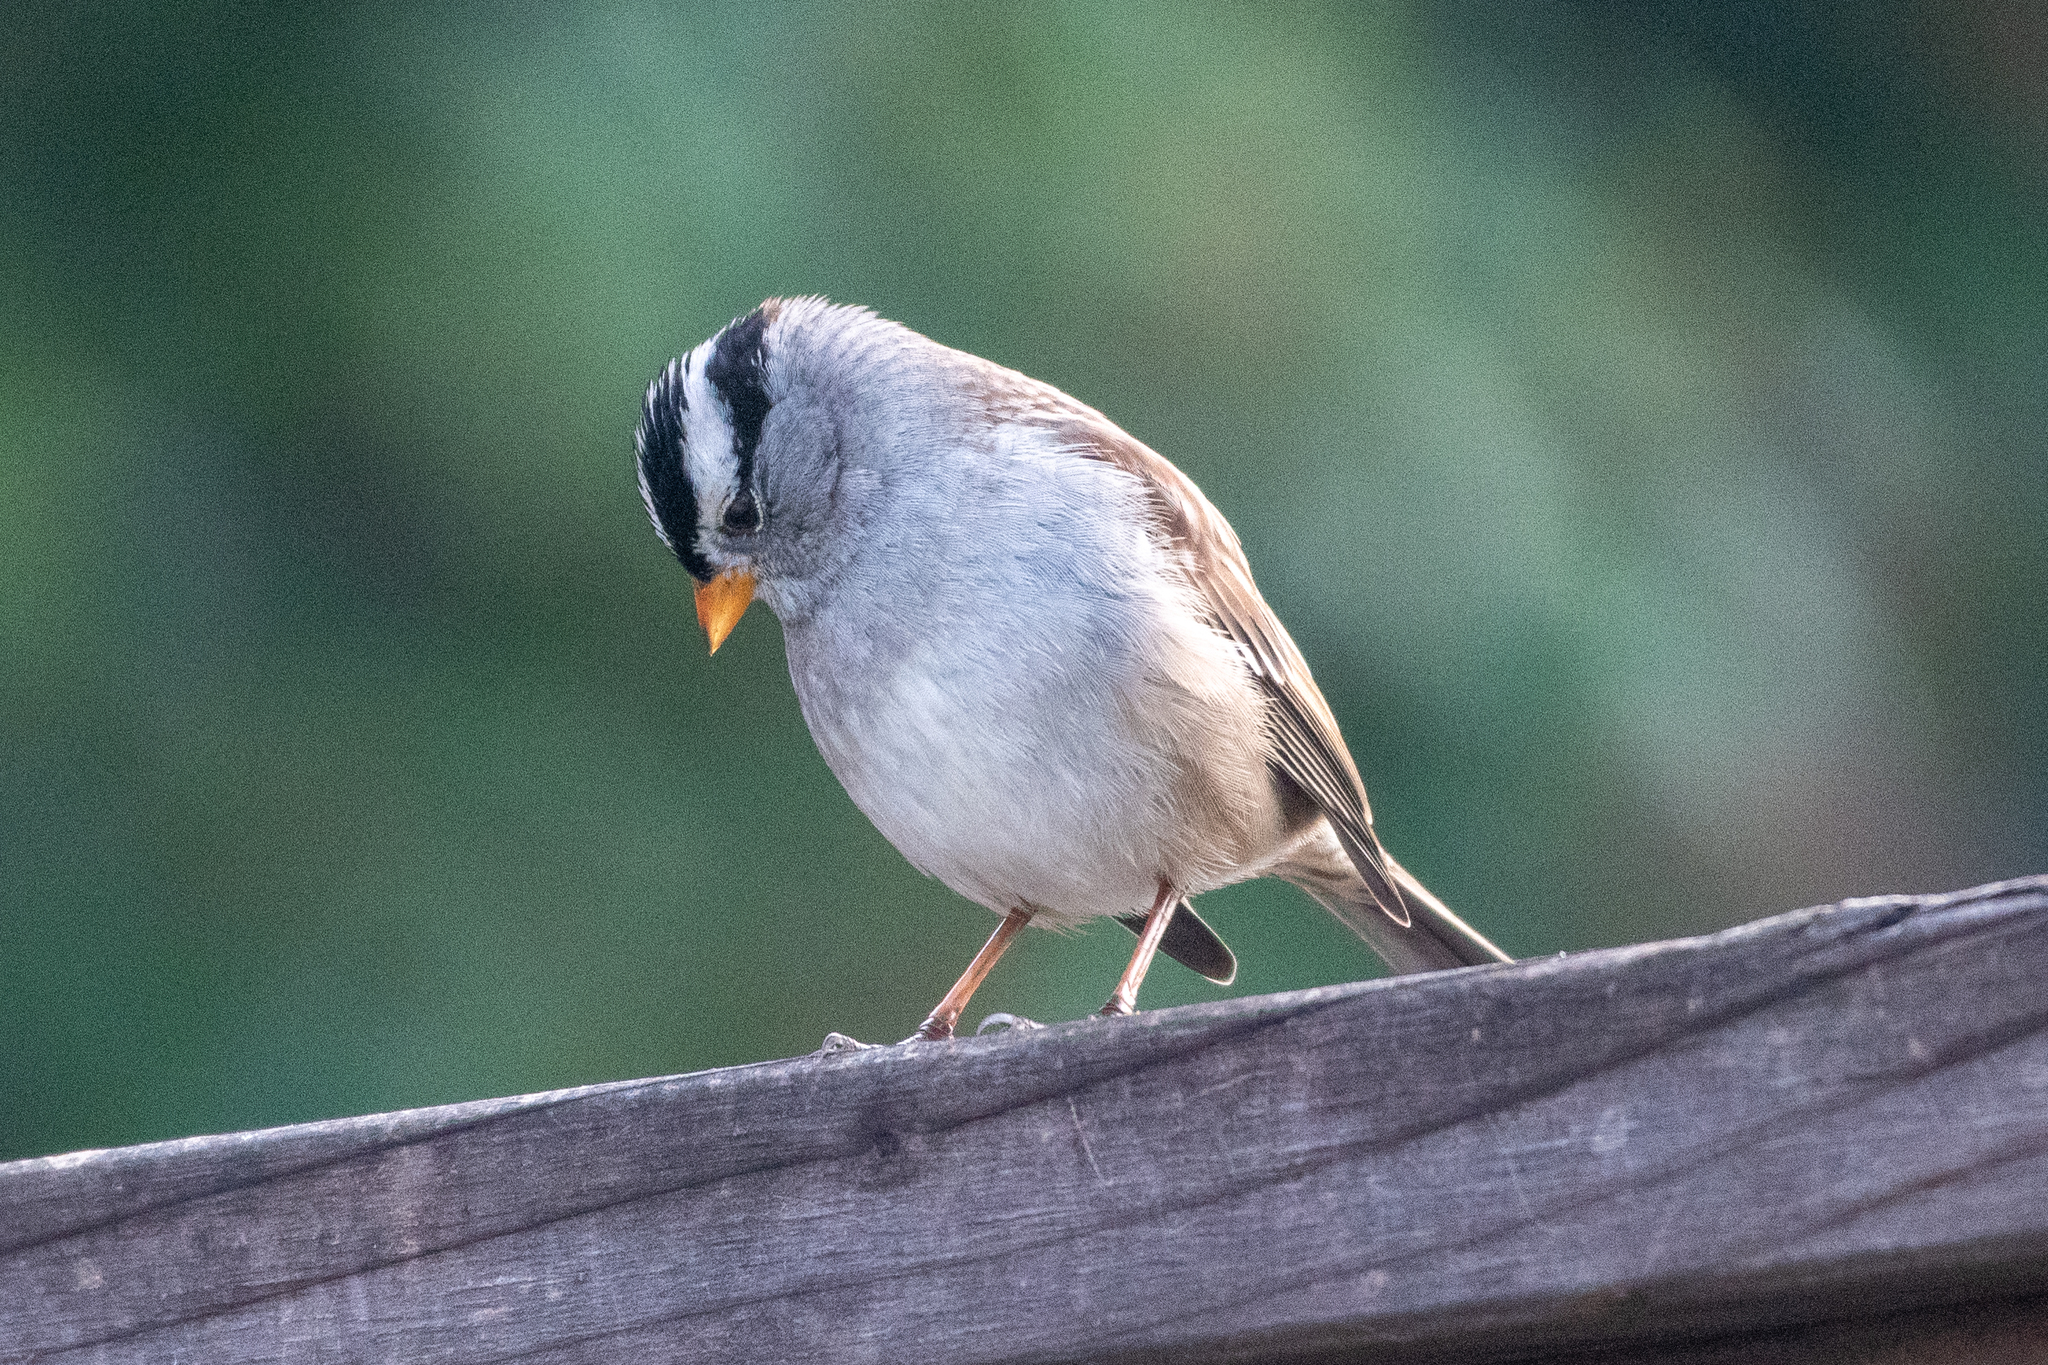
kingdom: Animalia
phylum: Chordata
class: Aves
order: Passeriformes
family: Passerellidae
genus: Zonotrichia
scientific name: Zonotrichia leucophrys
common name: White-crowned sparrow
